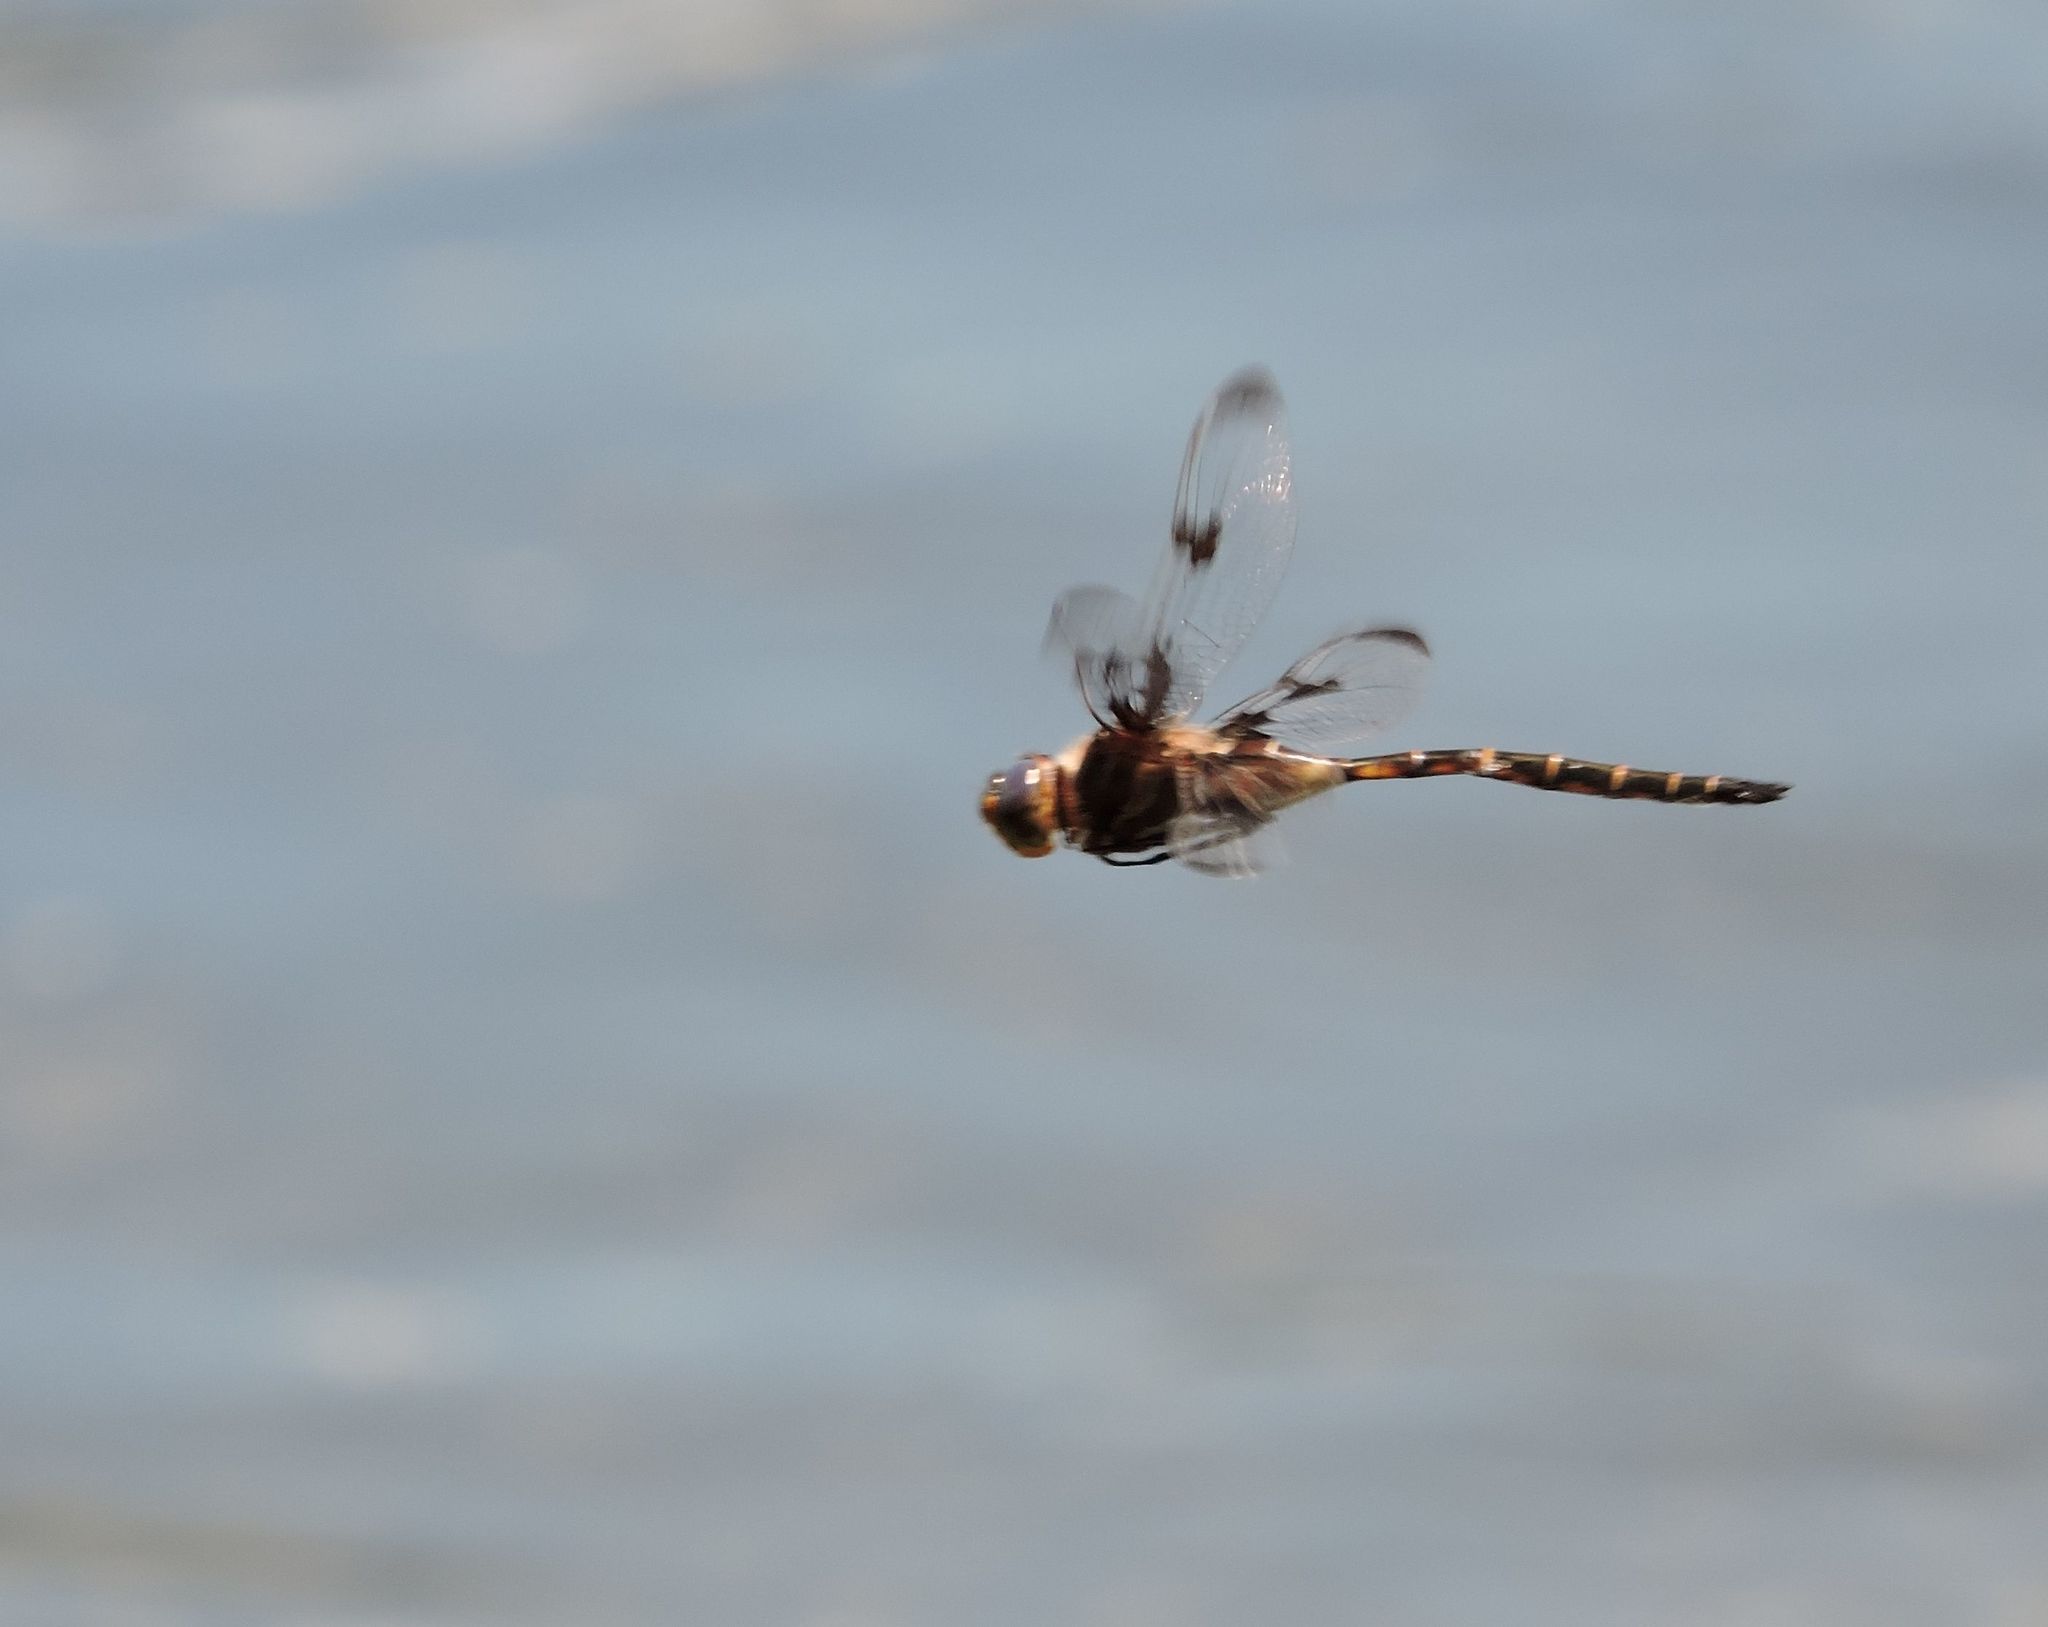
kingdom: Animalia
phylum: Arthropoda
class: Insecta
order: Odonata
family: Corduliidae
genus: Epitheca
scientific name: Epitheca princeps
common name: Prince baskettail
